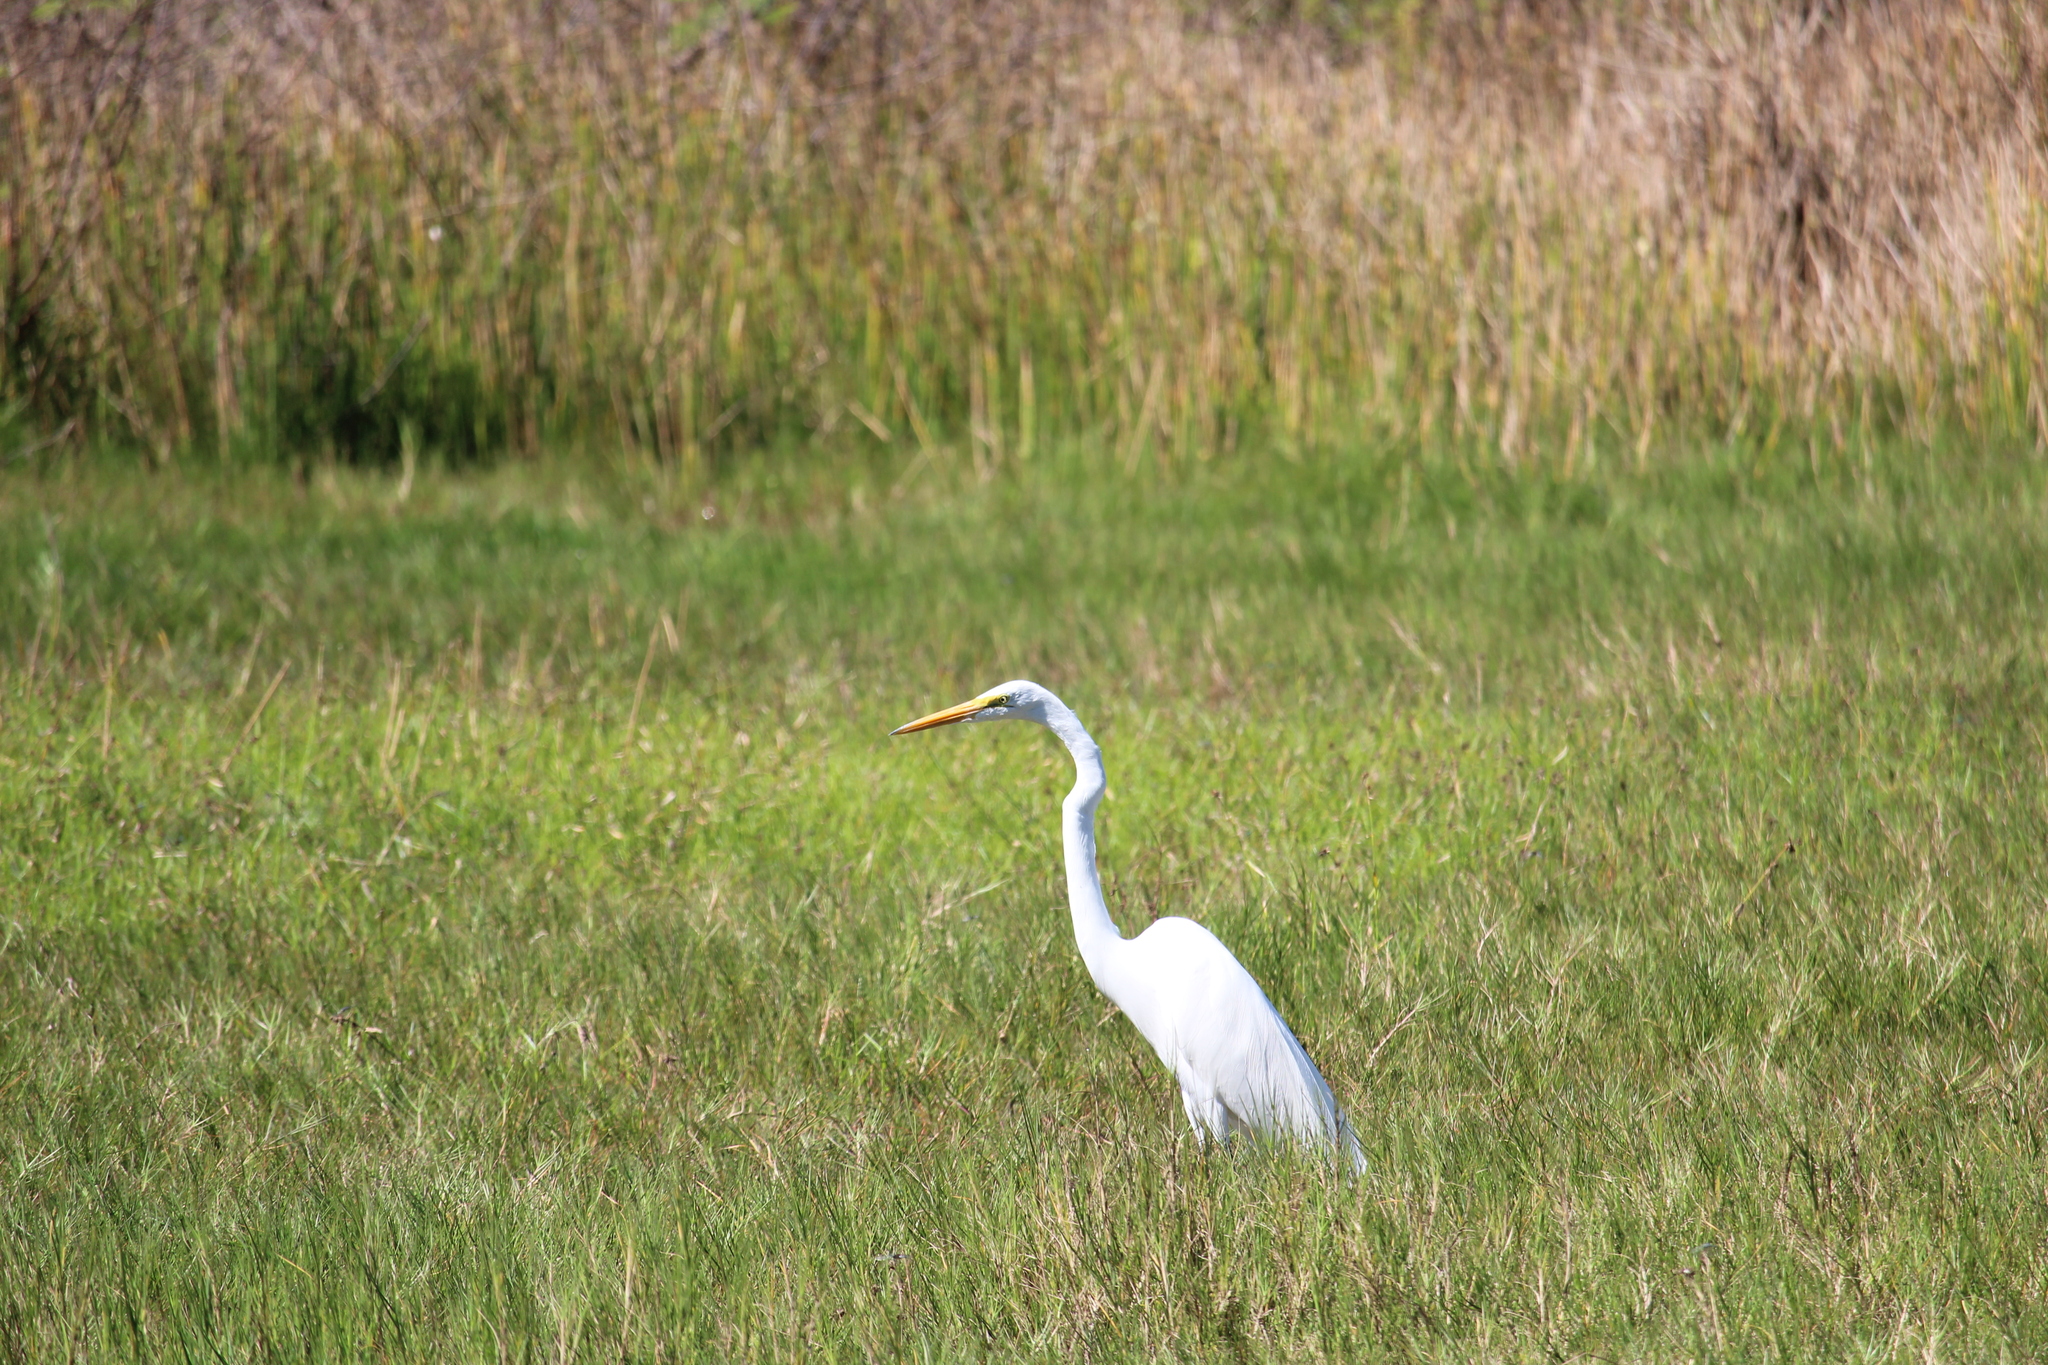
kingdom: Animalia
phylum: Chordata
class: Aves
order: Pelecaniformes
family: Ardeidae
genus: Ardea
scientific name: Ardea alba
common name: Great egret
